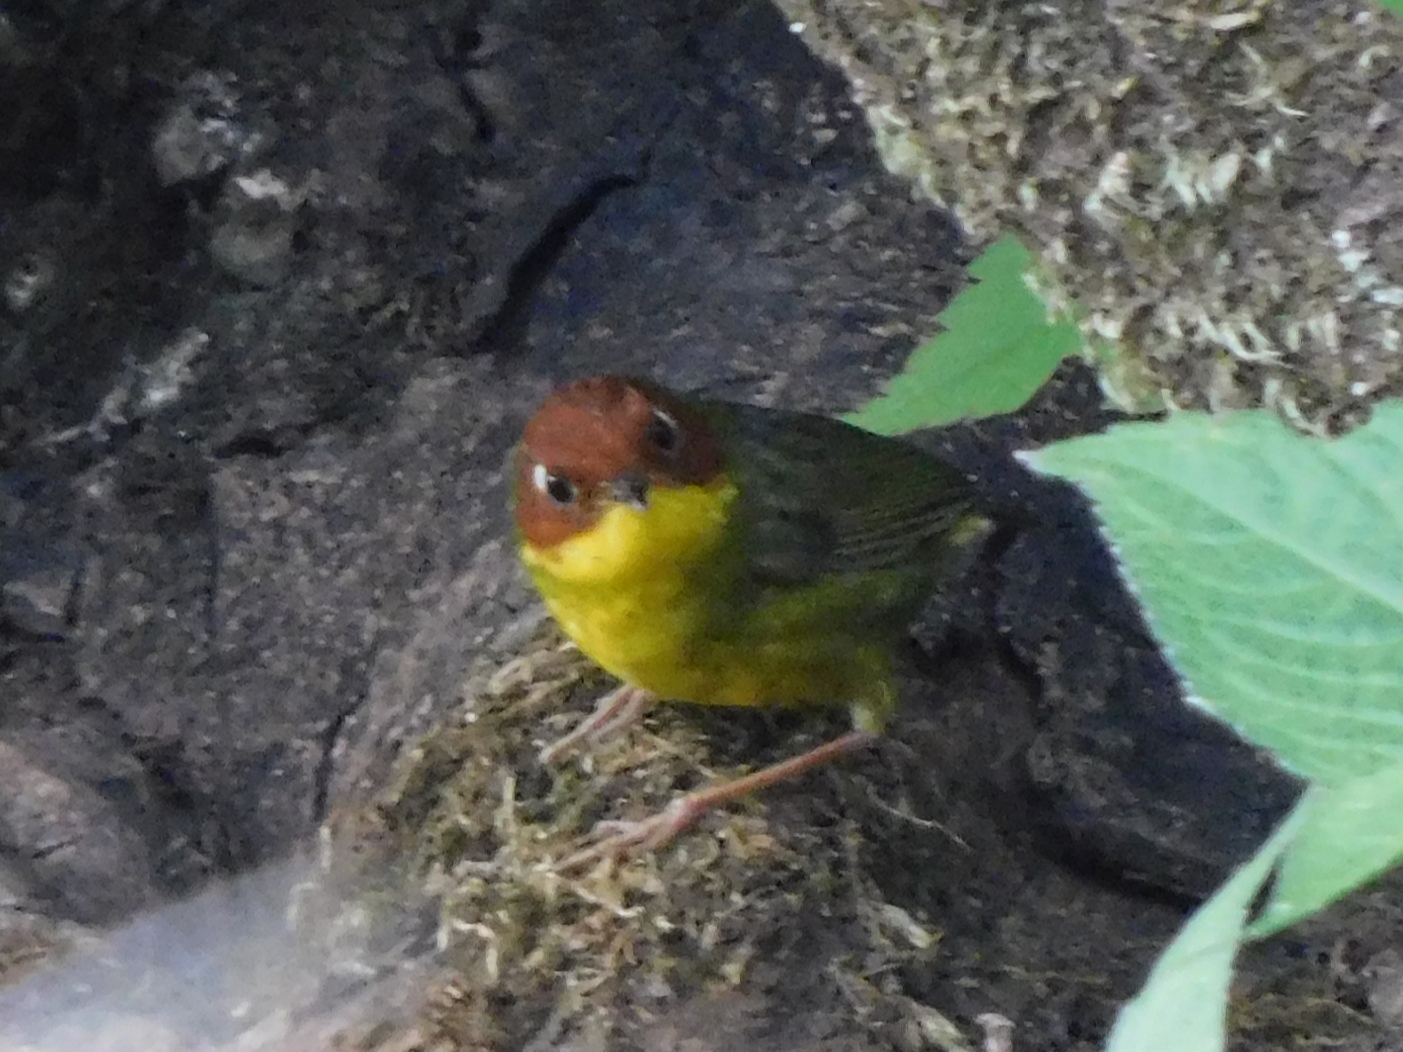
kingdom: Animalia
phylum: Chordata
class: Aves
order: Passeriformes
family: Cettiidae
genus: Cettia
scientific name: Cettia castaneocoronata
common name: Chestnut-headed tesia
